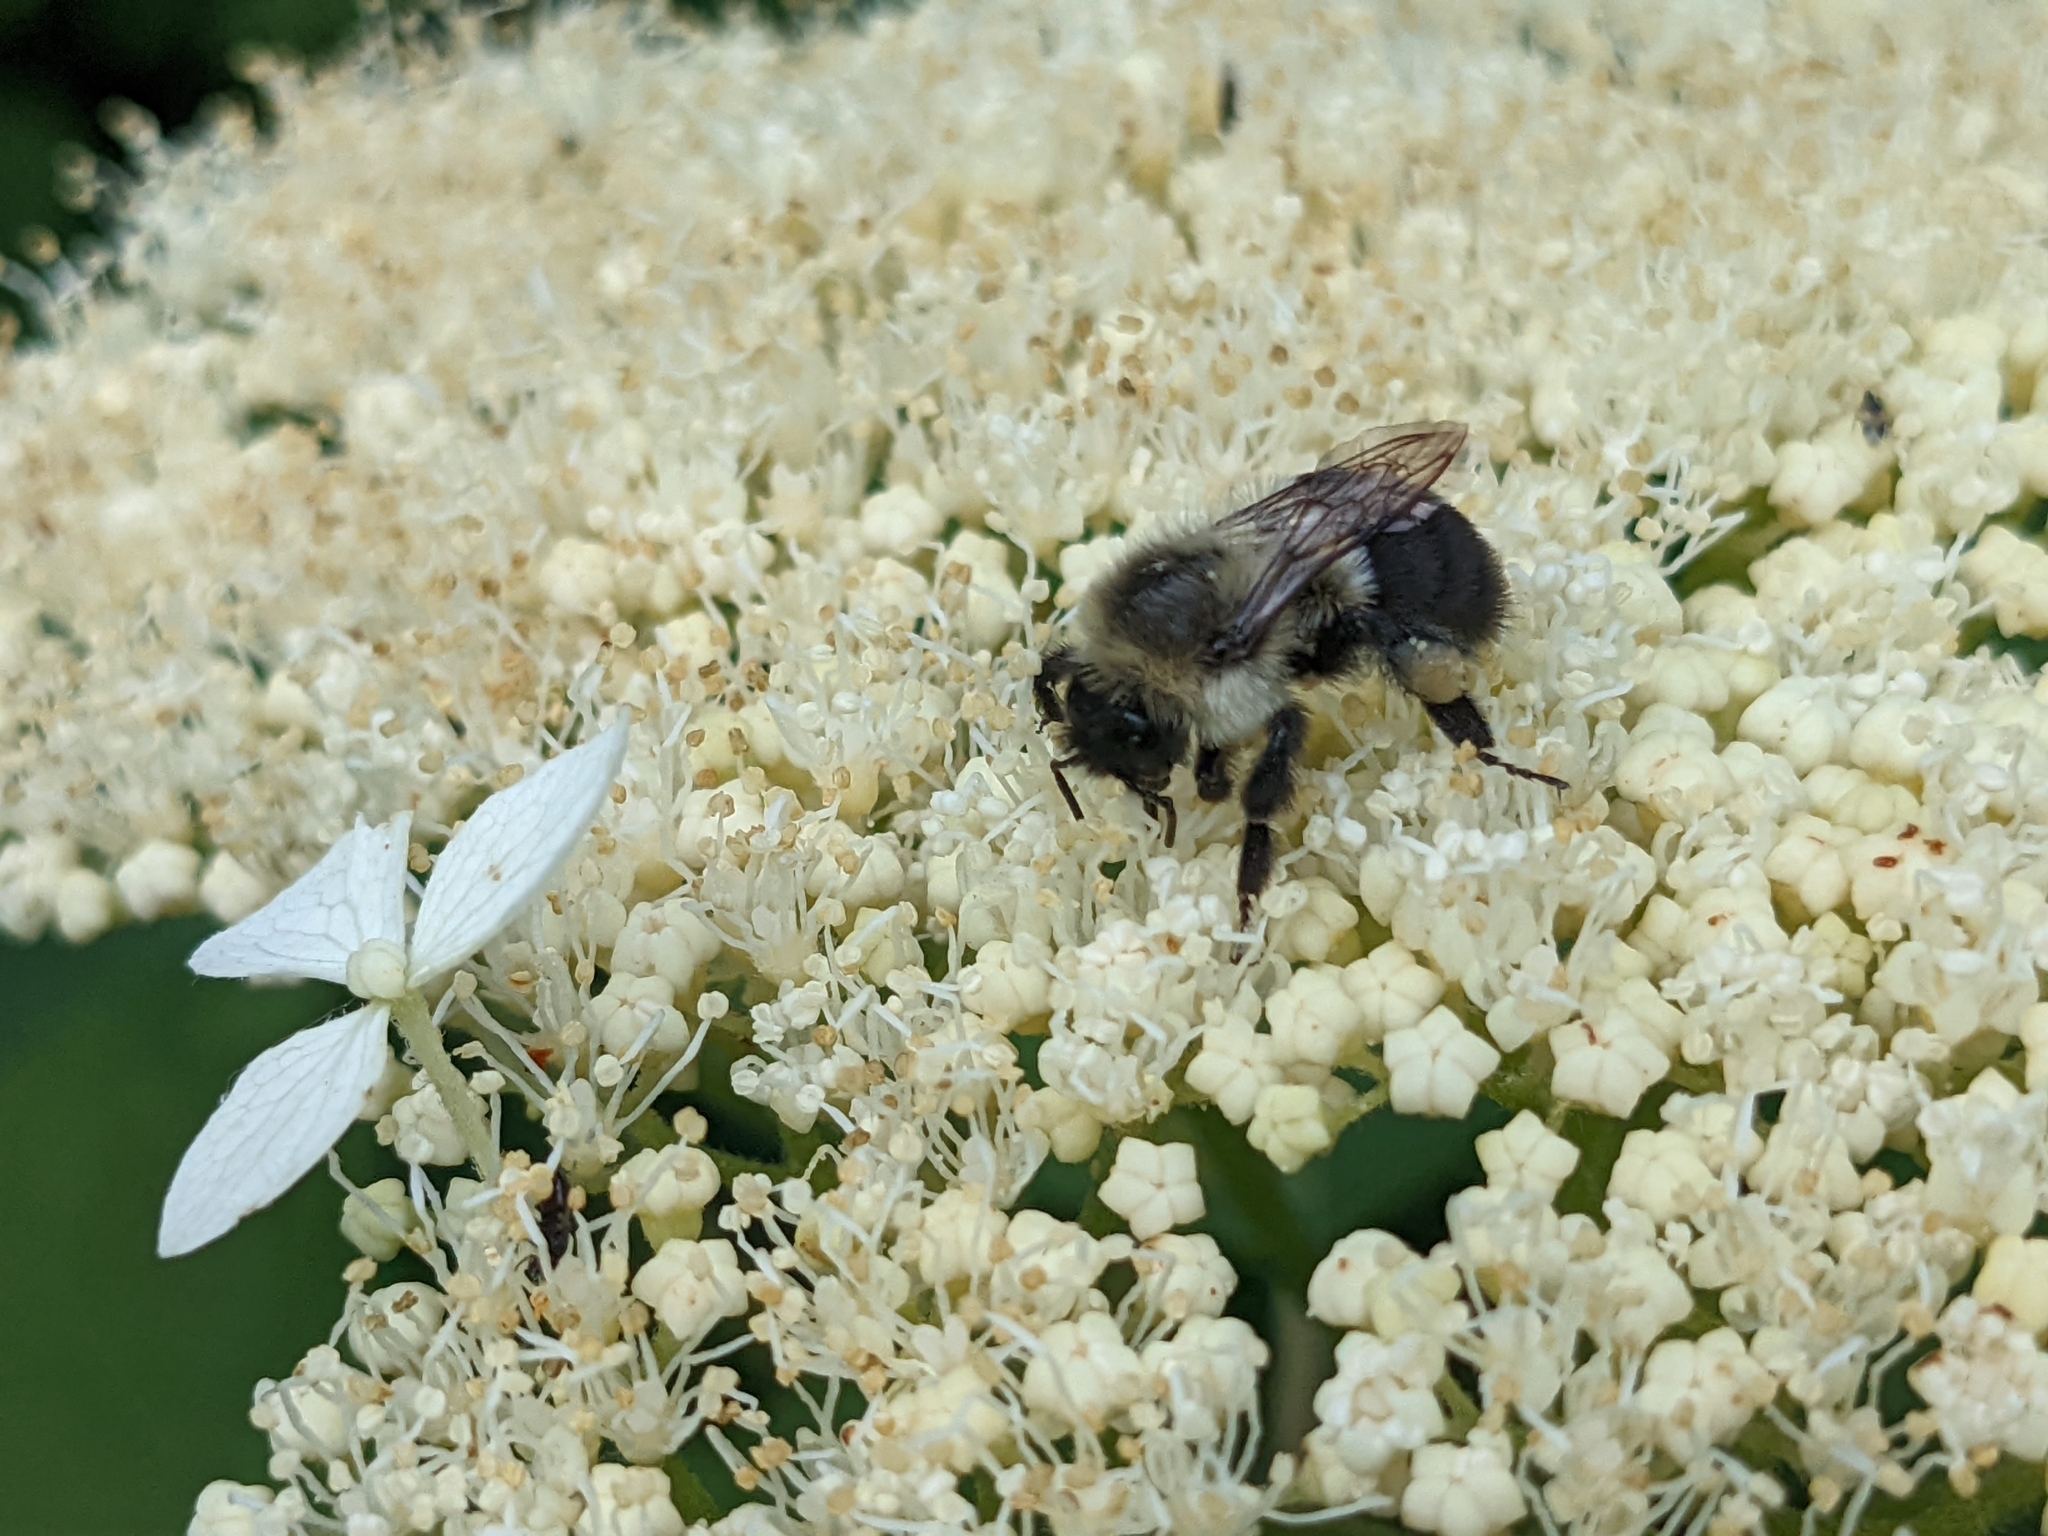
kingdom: Animalia
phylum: Arthropoda
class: Insecta
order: Hymenoptera
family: Apidae
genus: Bombus
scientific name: Bombus impatiens
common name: Common eastern bumble bee
